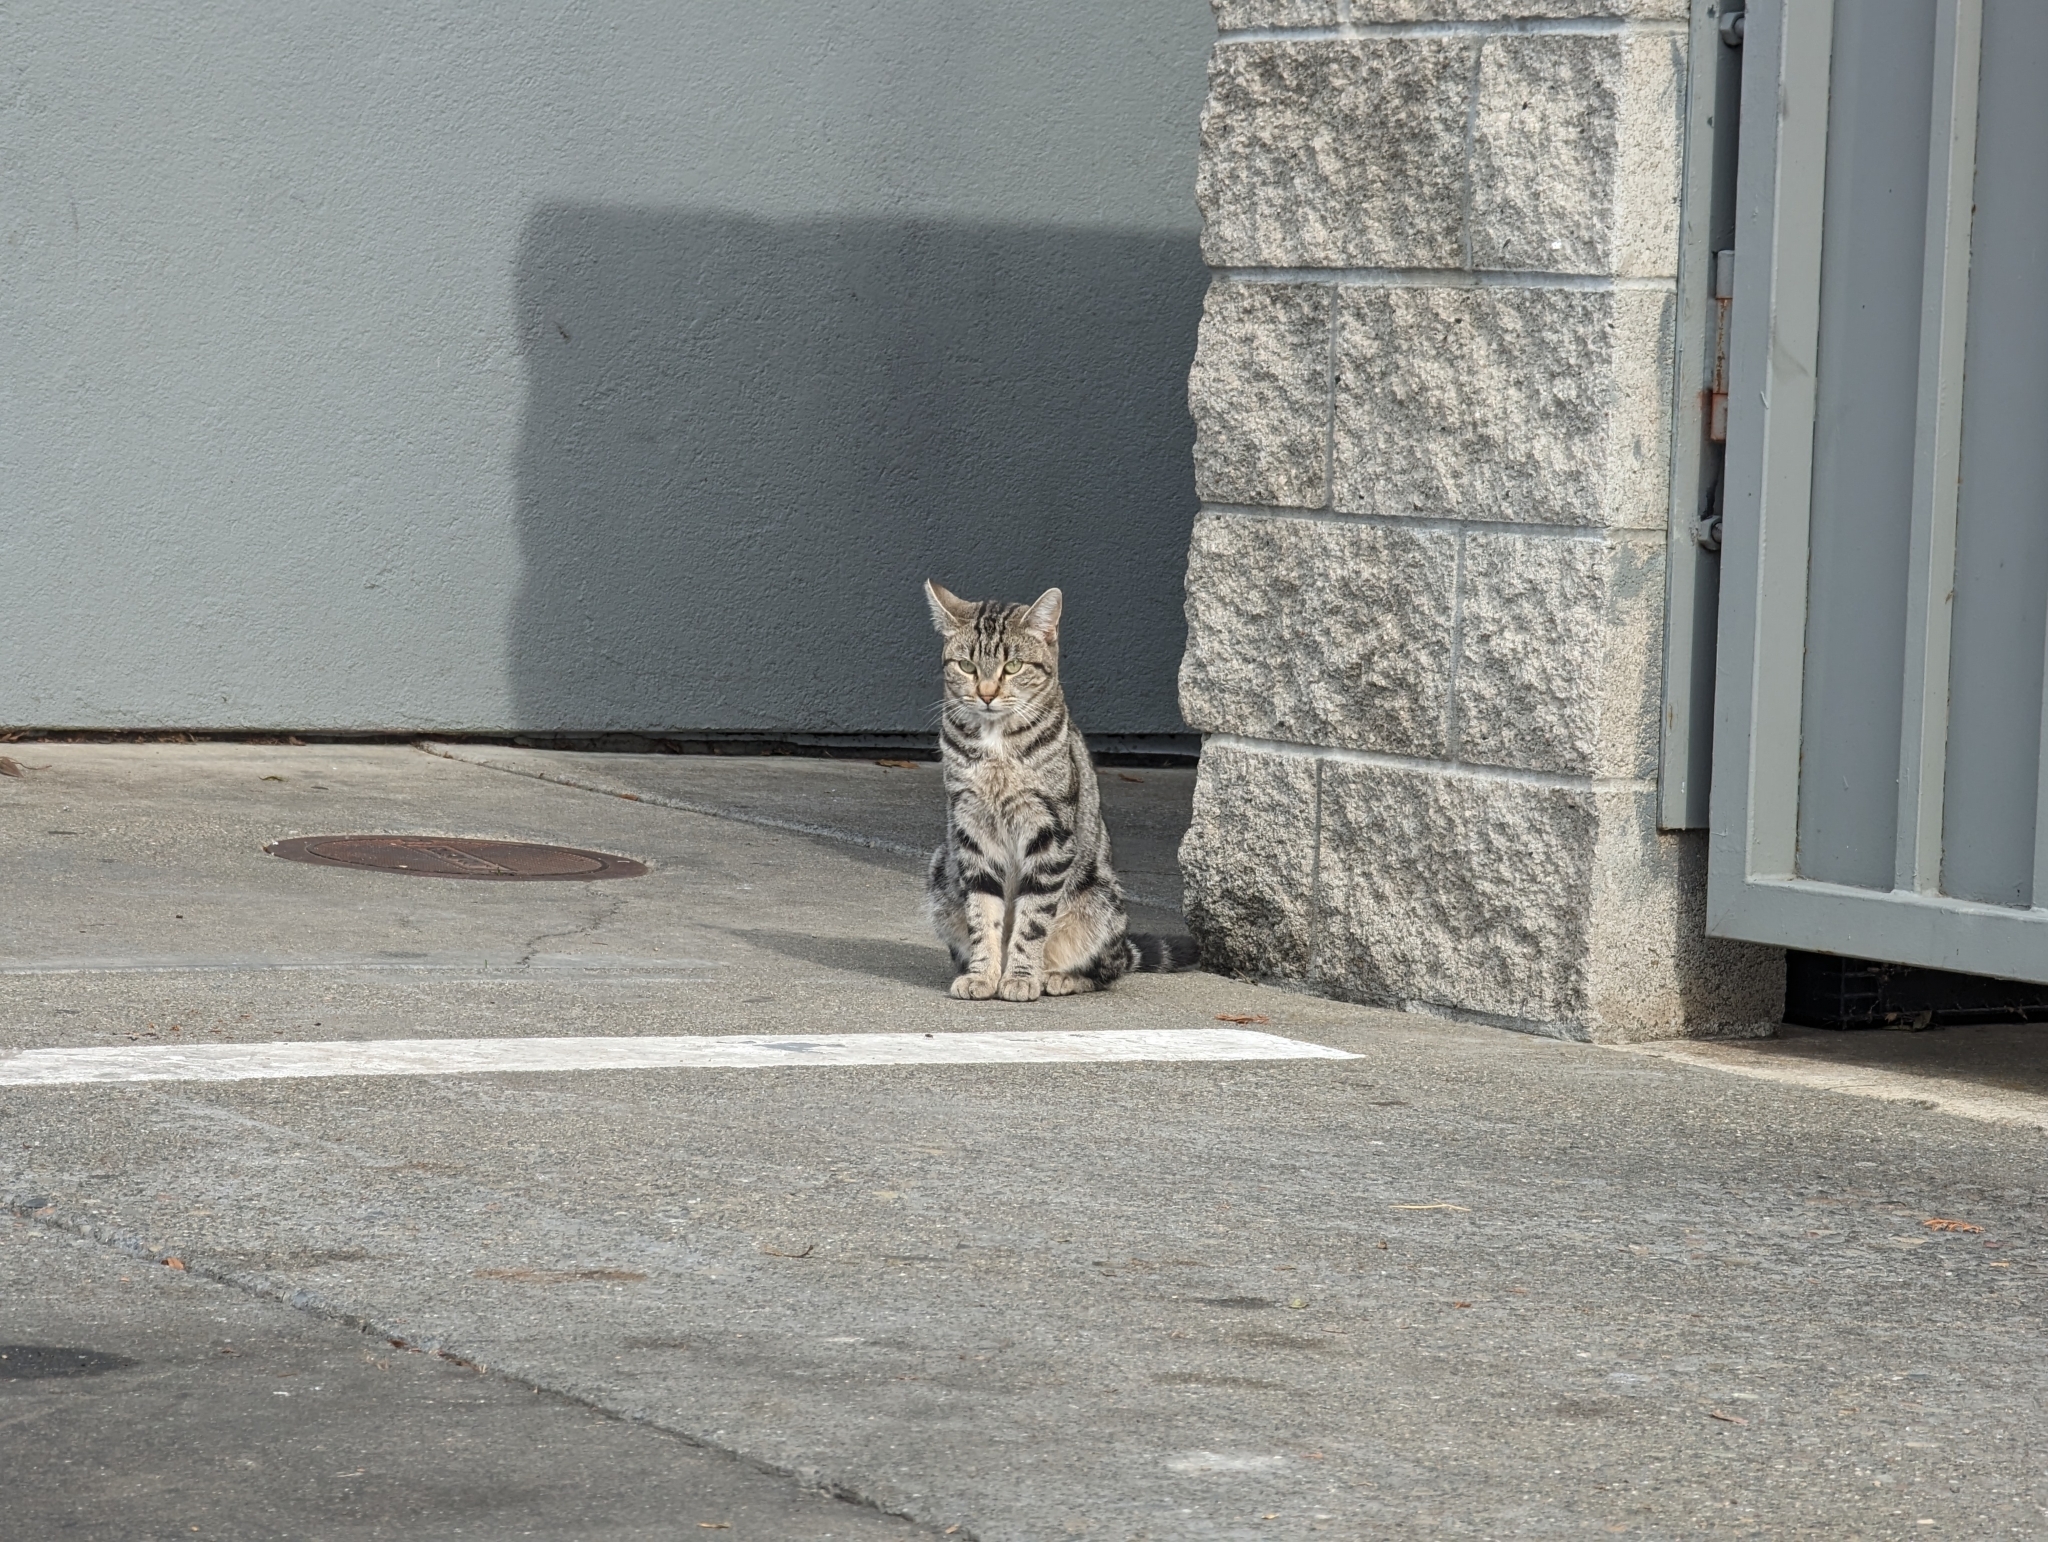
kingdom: Animalia
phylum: Chordata
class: Mammalia
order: Carnivora
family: Felidae
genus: Felis
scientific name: Felis catus
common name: Domestic cat
